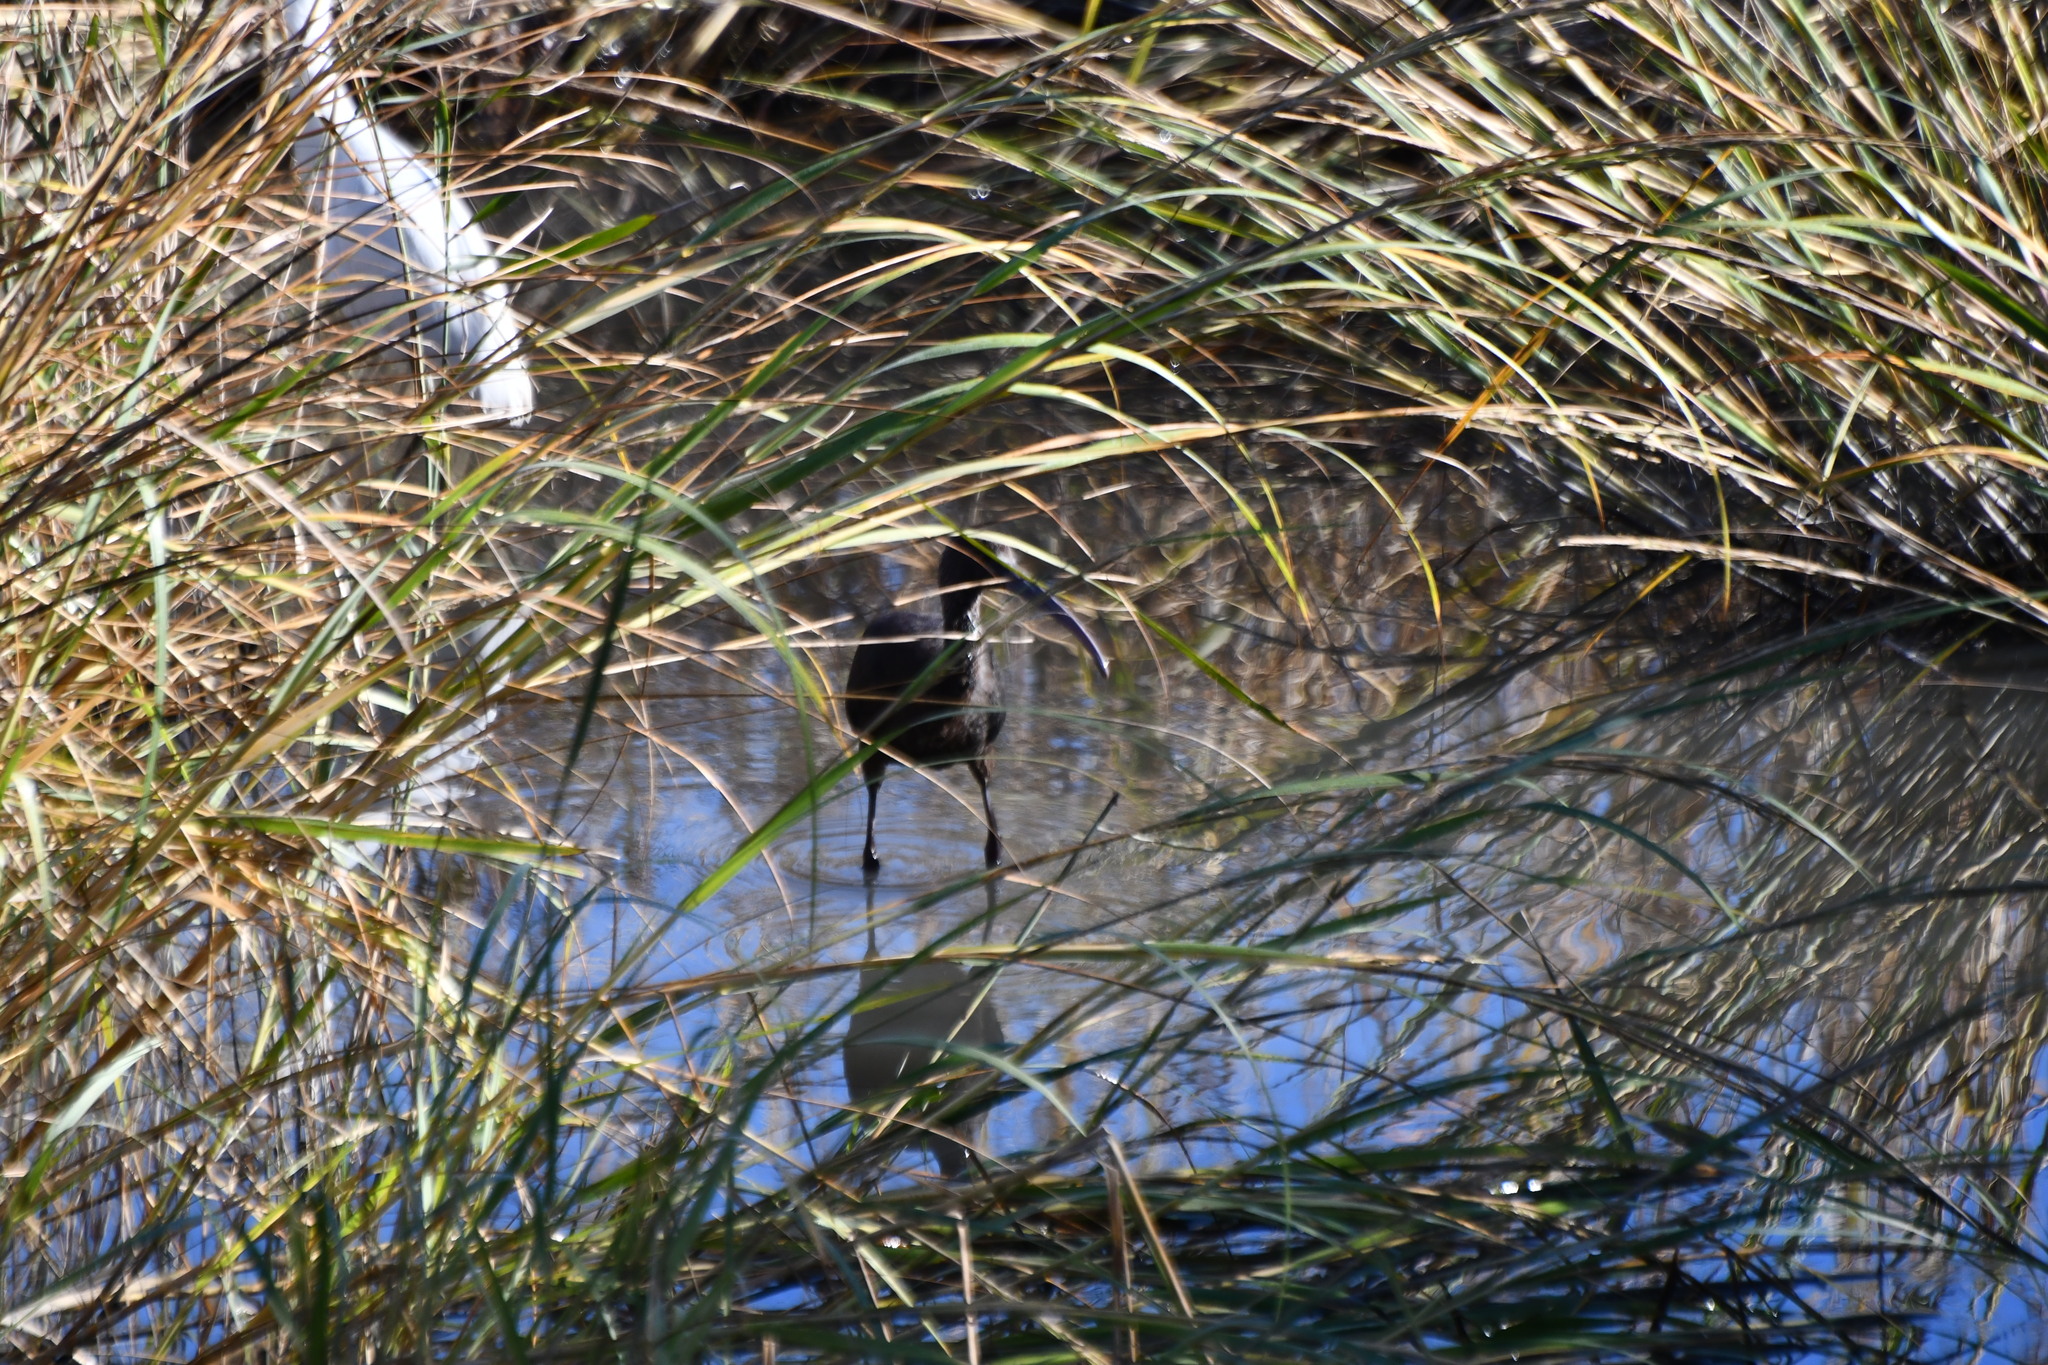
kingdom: Animalia
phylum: Chordata
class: Aves
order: Pelecaniformes
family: Threskiornithidae
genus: Plegadis
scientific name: Plegadis falcinellus
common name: Glossy ibis
